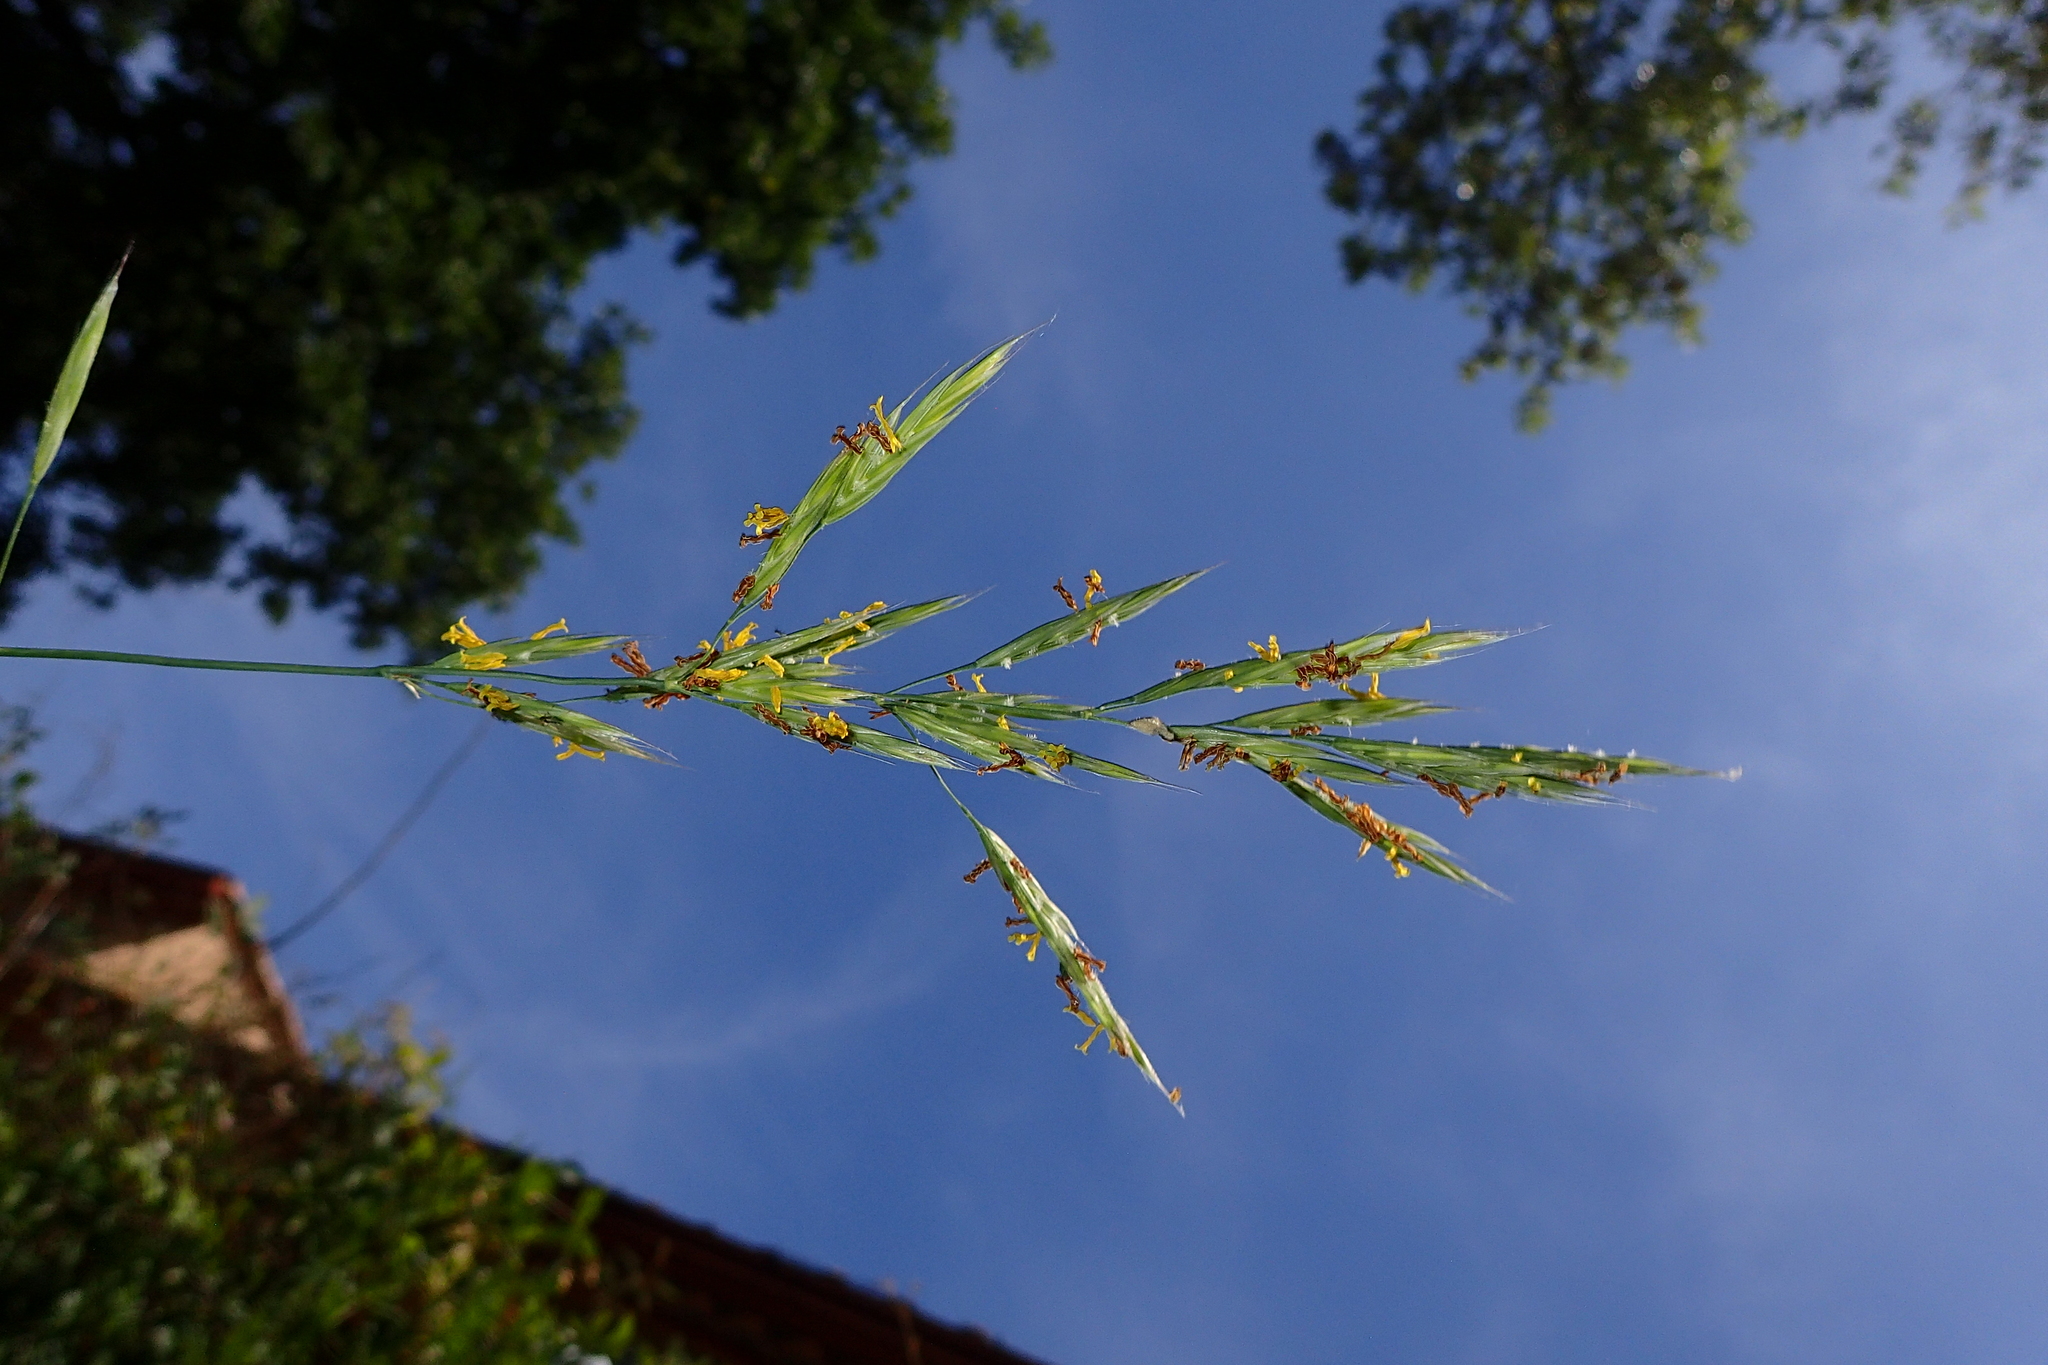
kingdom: Plantae
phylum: Tracheophyta
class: Liliopsida
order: Poales
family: Poaceae
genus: Bromus
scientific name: Bromus erectus
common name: Erect brome
